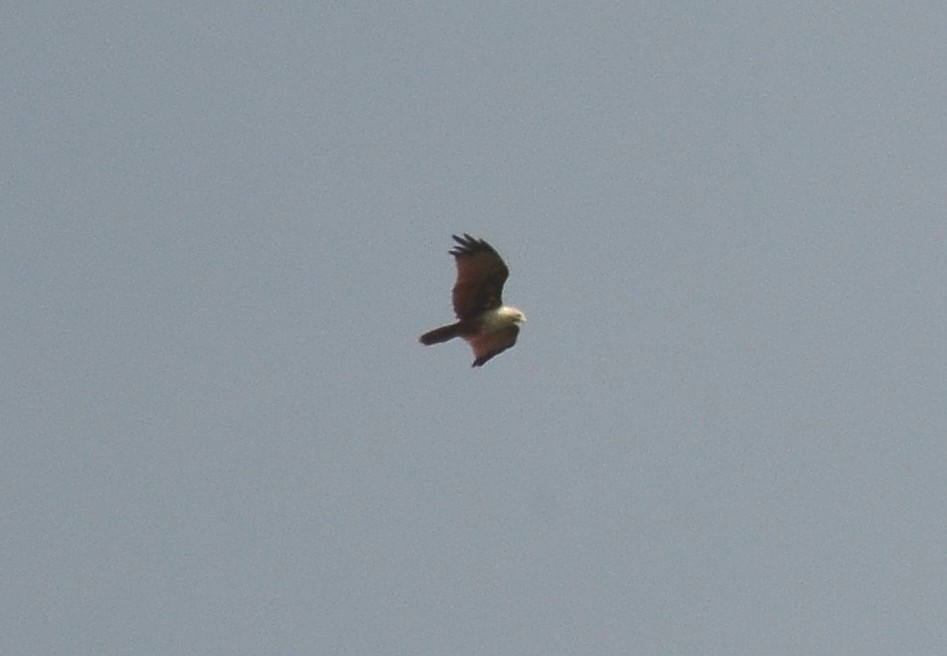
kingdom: Animalia
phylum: Chordata
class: Aves
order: Accipitriformes
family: Accipitridae
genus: Haliastur
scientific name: Haliastur indus
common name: Brahminy kite
